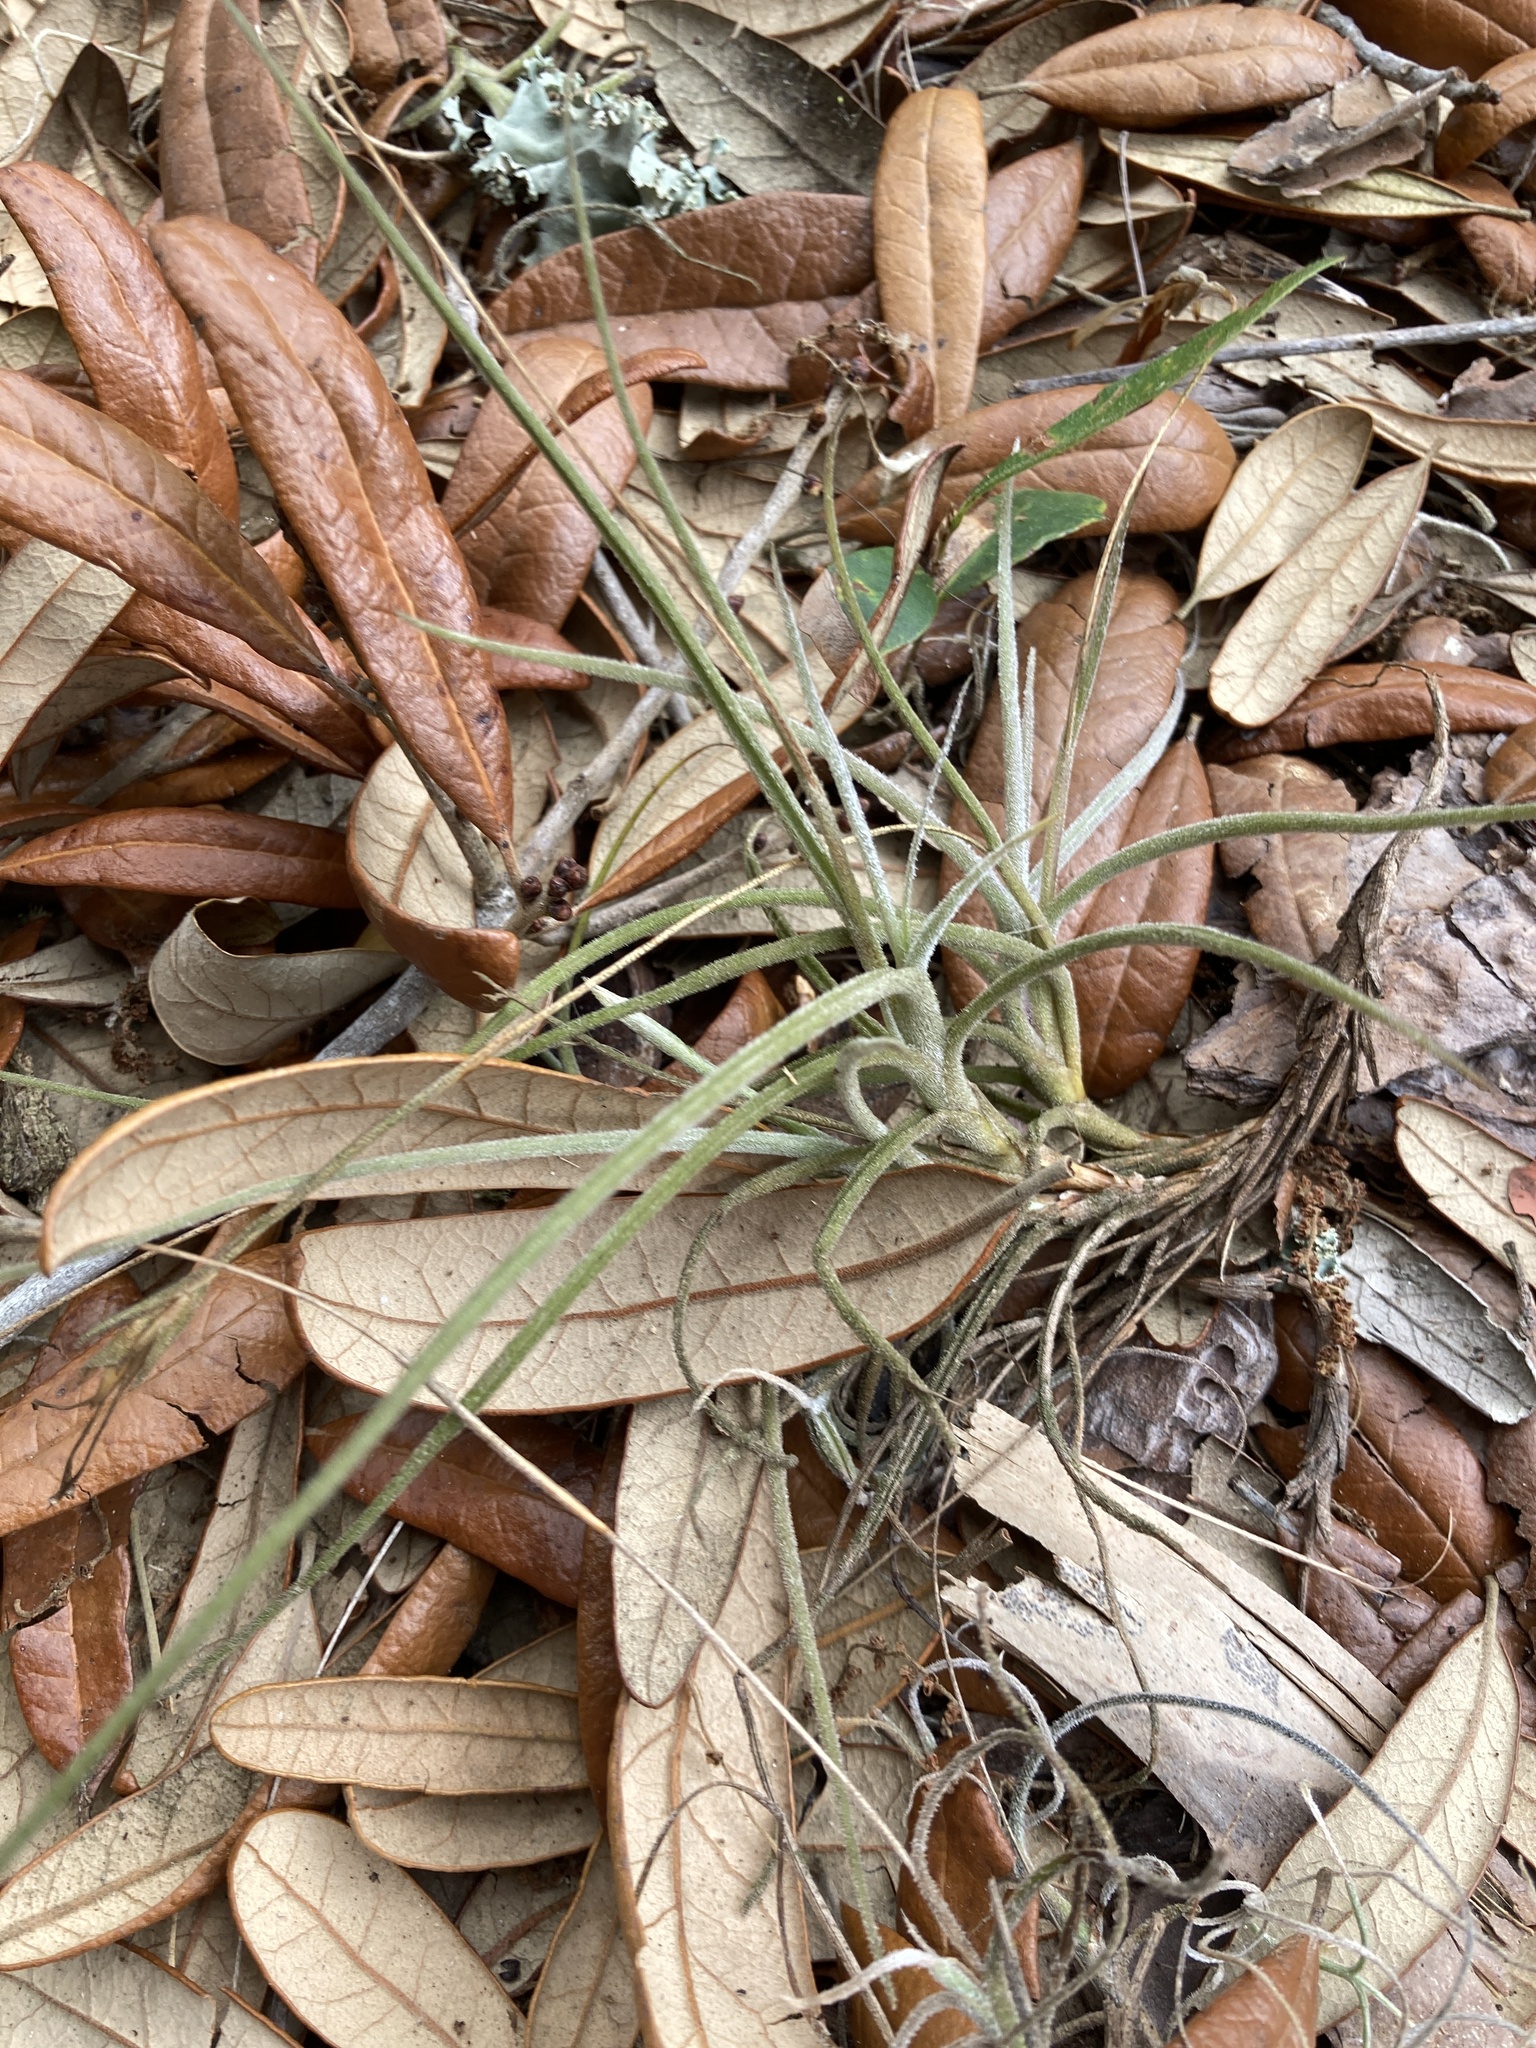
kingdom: Plantae
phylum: Tracheophyta
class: Liliopsida
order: Poales
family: Bromeliaceae
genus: Tillandsia
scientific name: Tillandsia recurvata
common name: Small ballmoss
